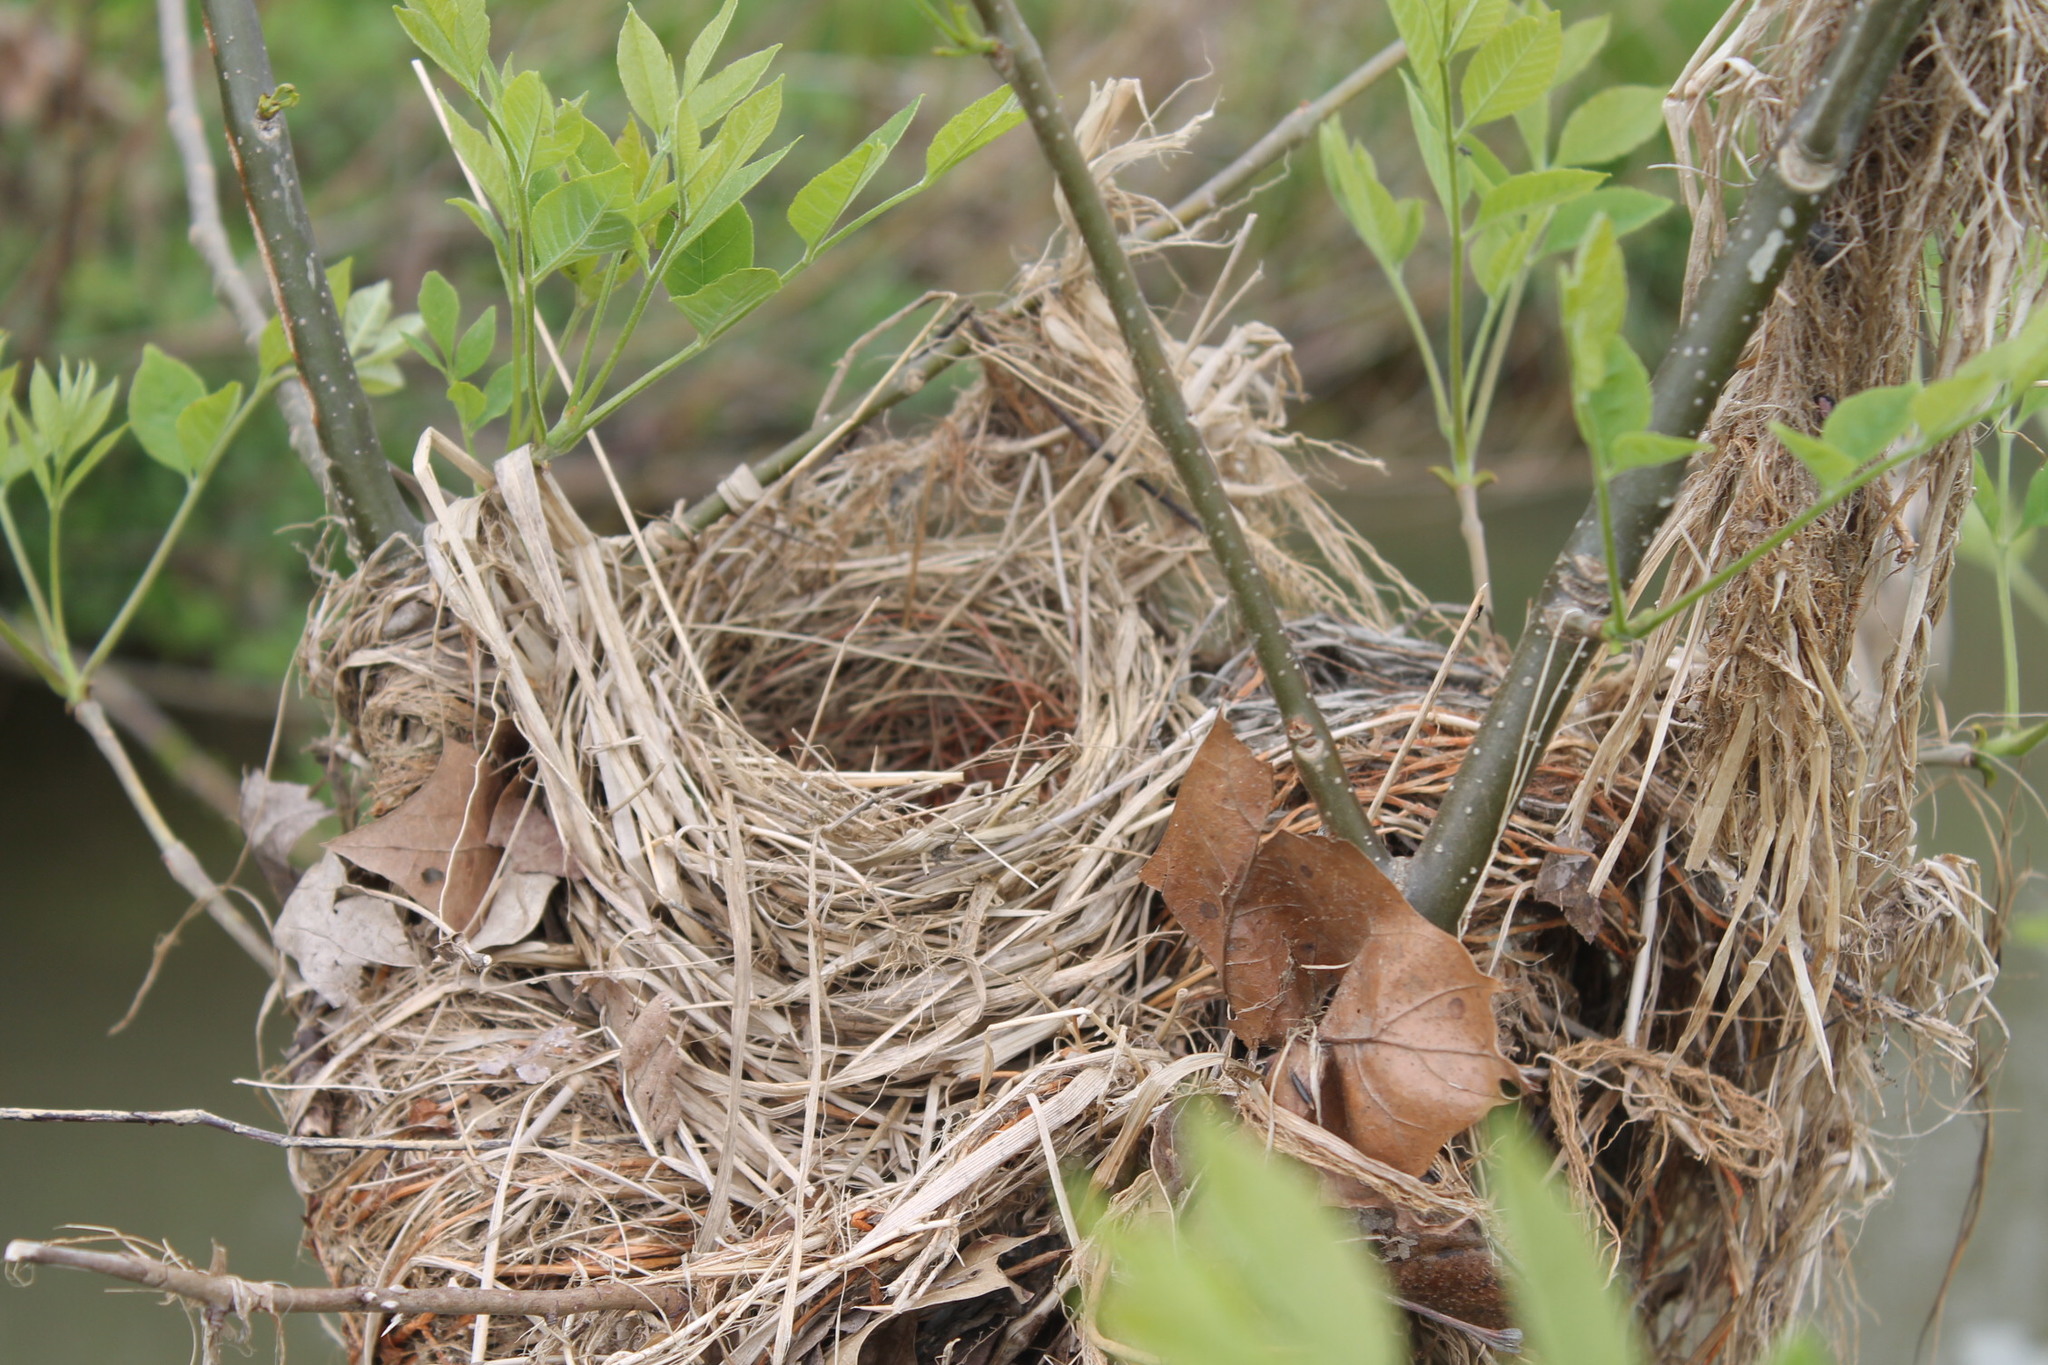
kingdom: Animalia
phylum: Chordata
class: Aves
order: Passeriformes
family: Icteridae
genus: Agelaius
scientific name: Agelaius phoeniceus
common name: Red-winged blackbird
